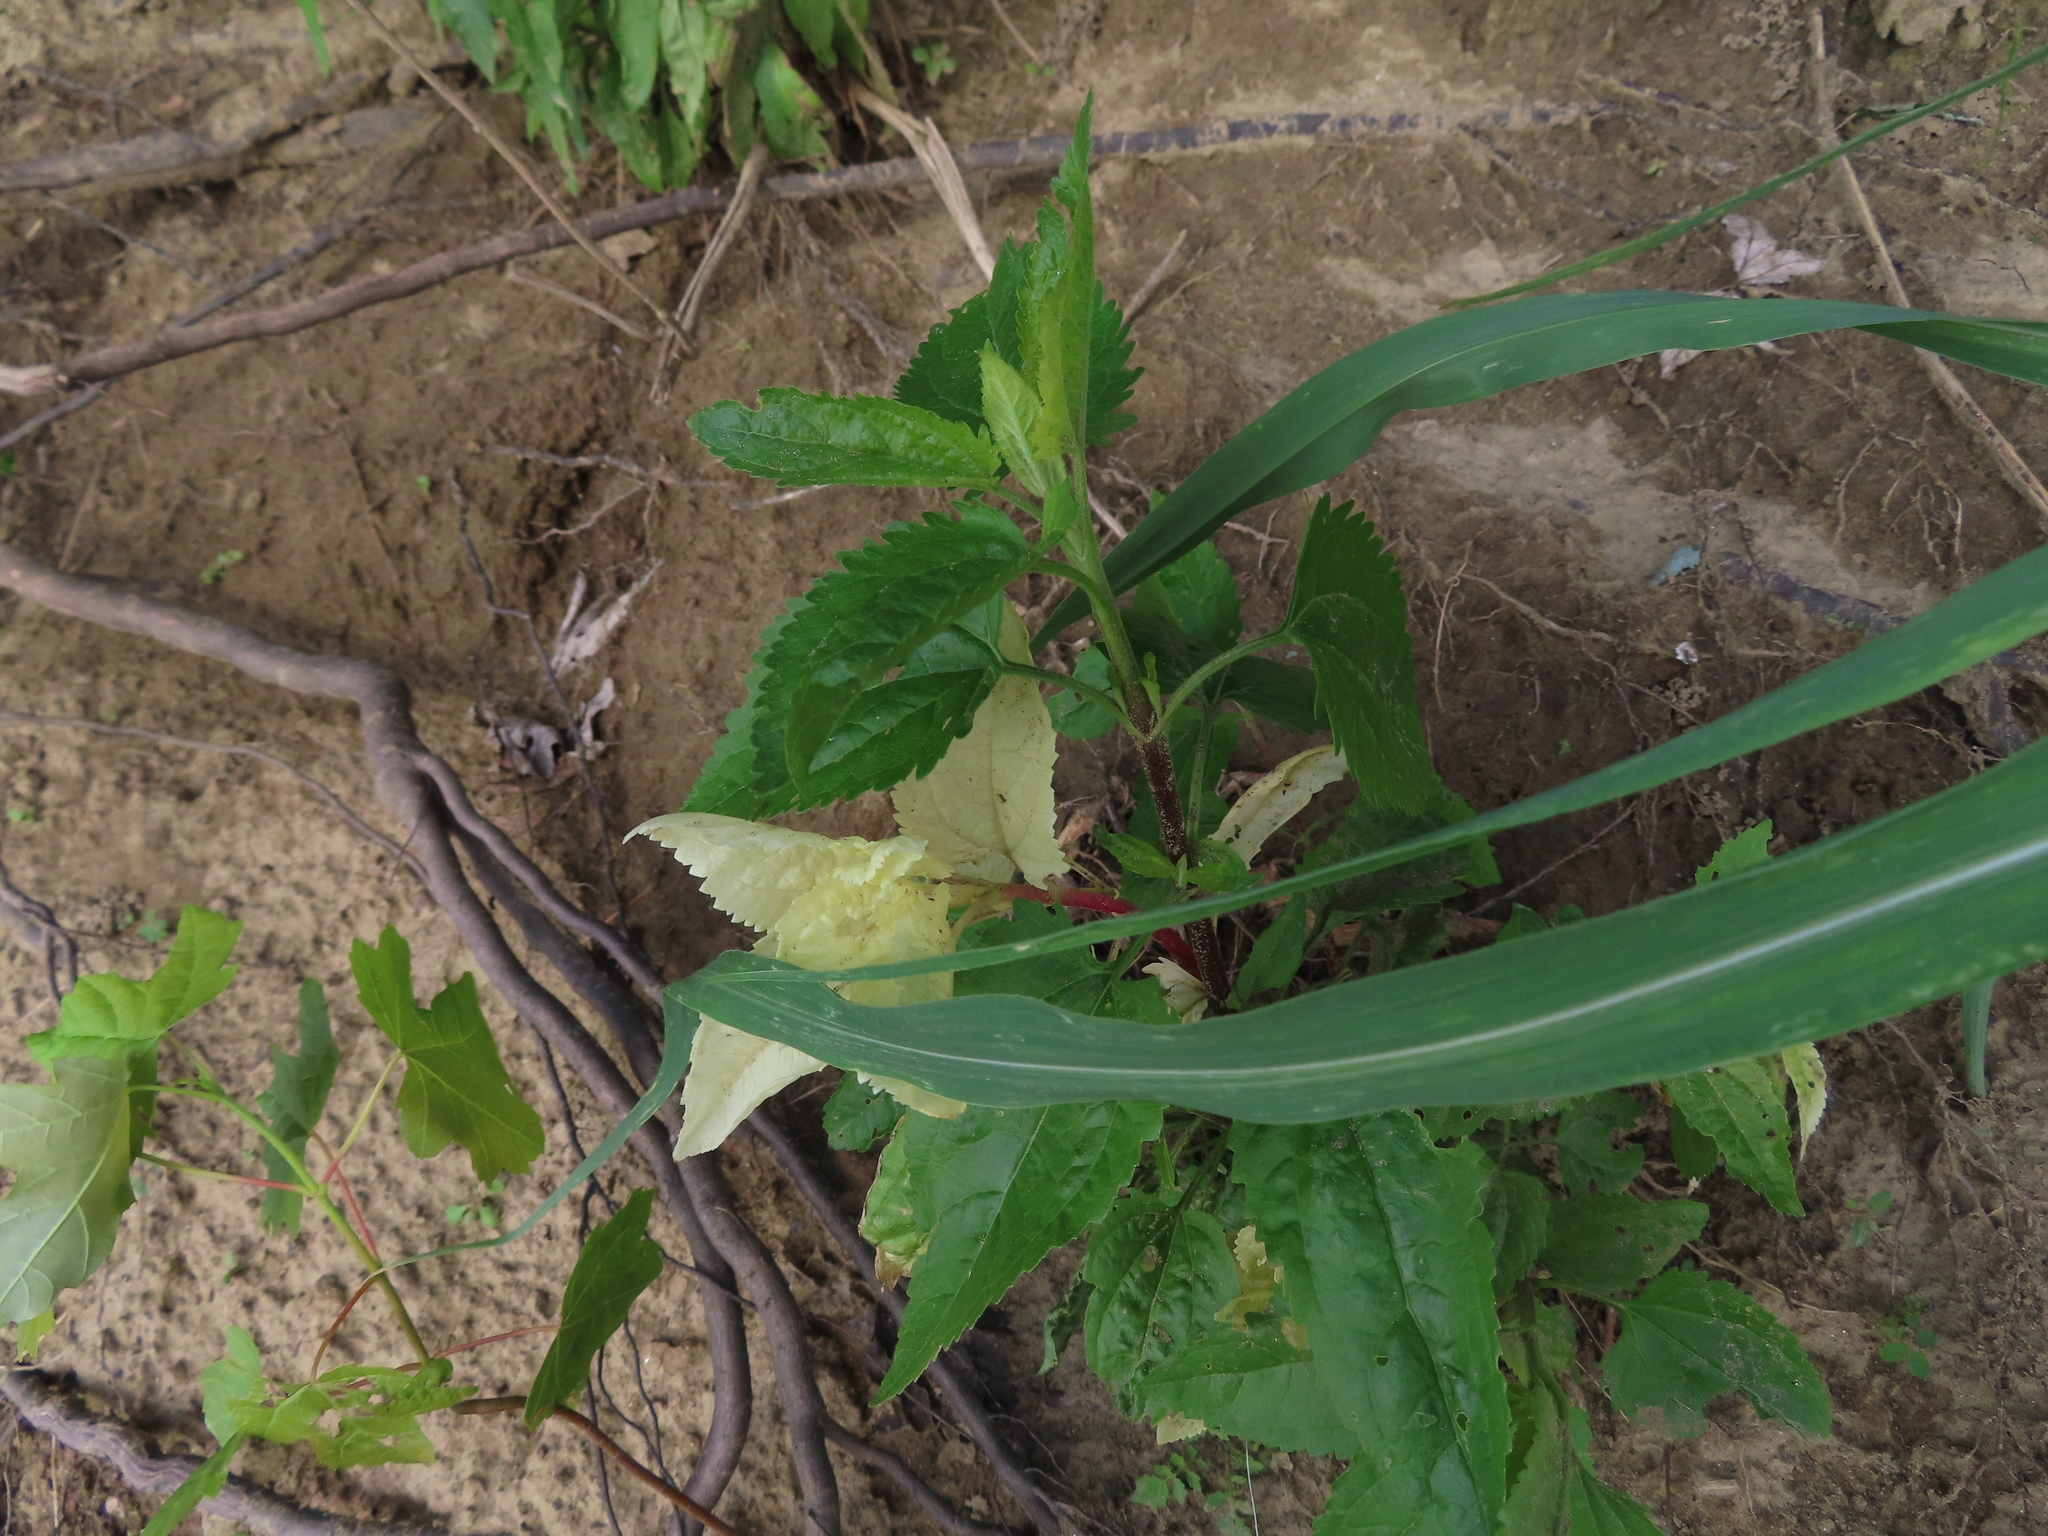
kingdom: Plantae
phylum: Tracheophyta
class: Magnoliopsida
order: Asterales
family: Asteraceae
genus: Eupatorium
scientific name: Eupatorium serotinum
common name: Late boneset
